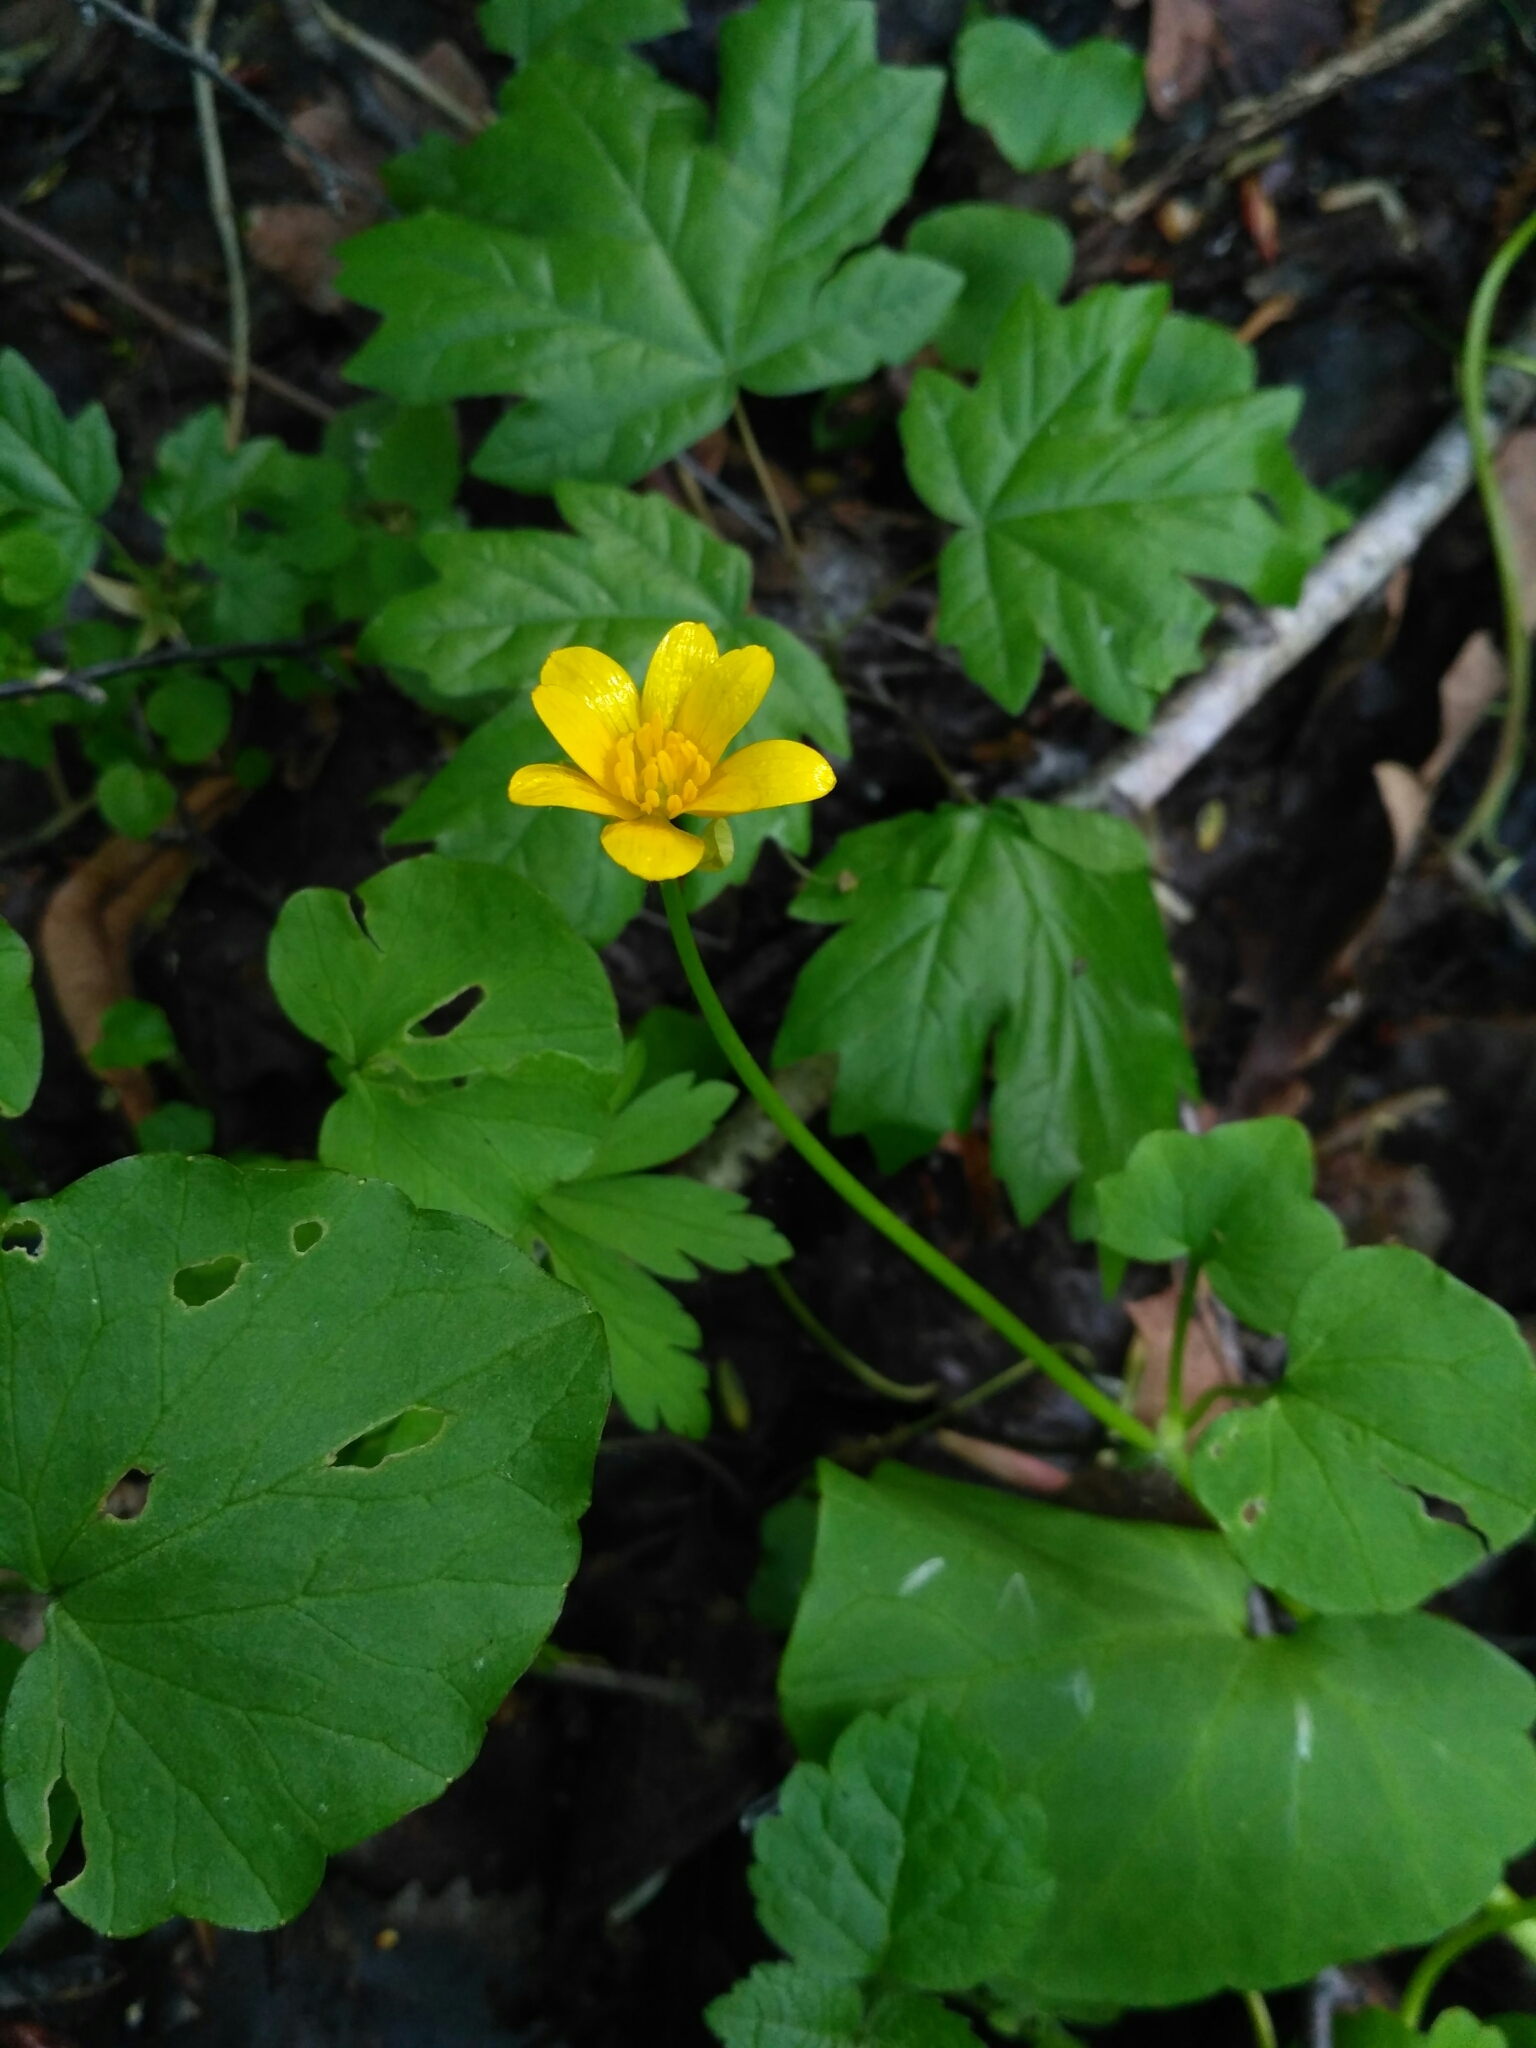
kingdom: Plantae
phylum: Tracheophyta
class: Magnoliopsida
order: Ranunculales
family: Ranunculaceae
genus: Ficaria
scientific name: Ficaria verna
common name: Lesser celandine
